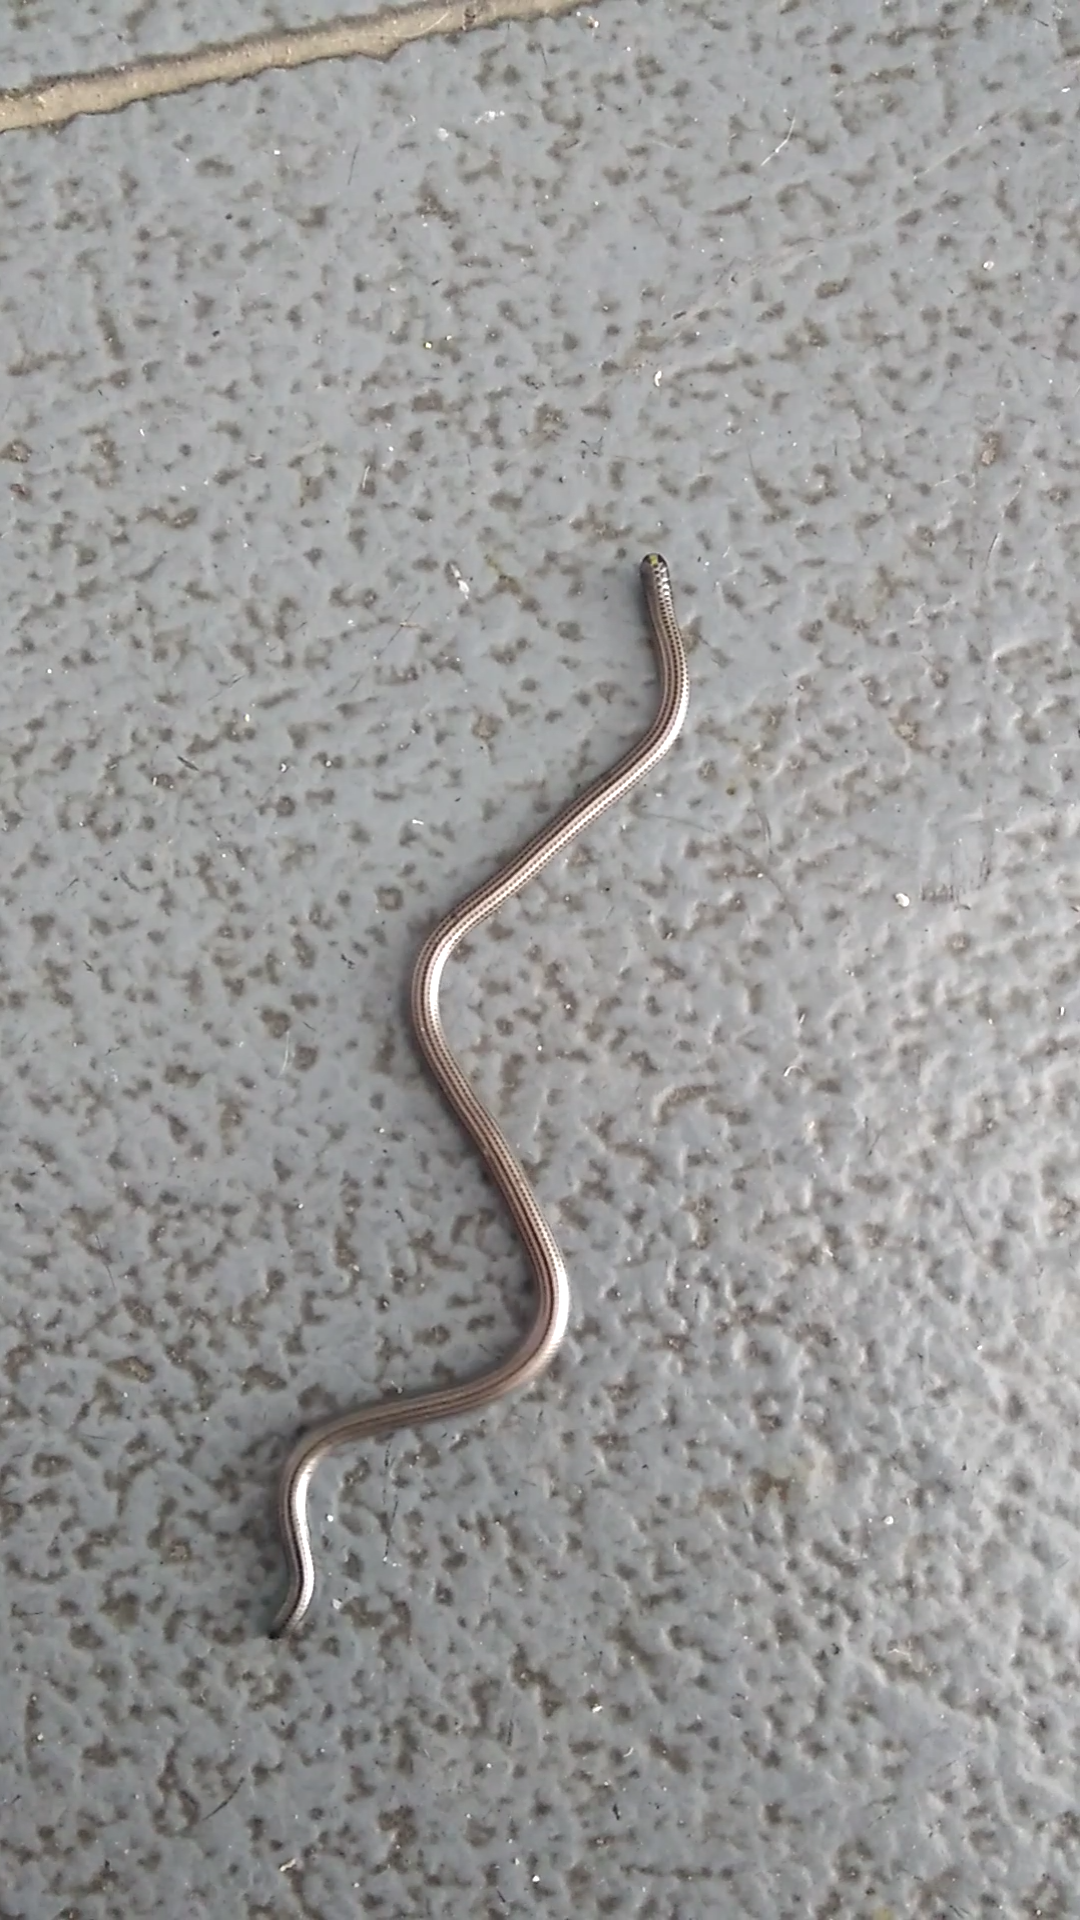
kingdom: Animalia
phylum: Chordata
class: Squamata
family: Leptotyphlopidae
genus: Epictia
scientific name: Epictia munoai
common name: Rio grande do sul blind snake
